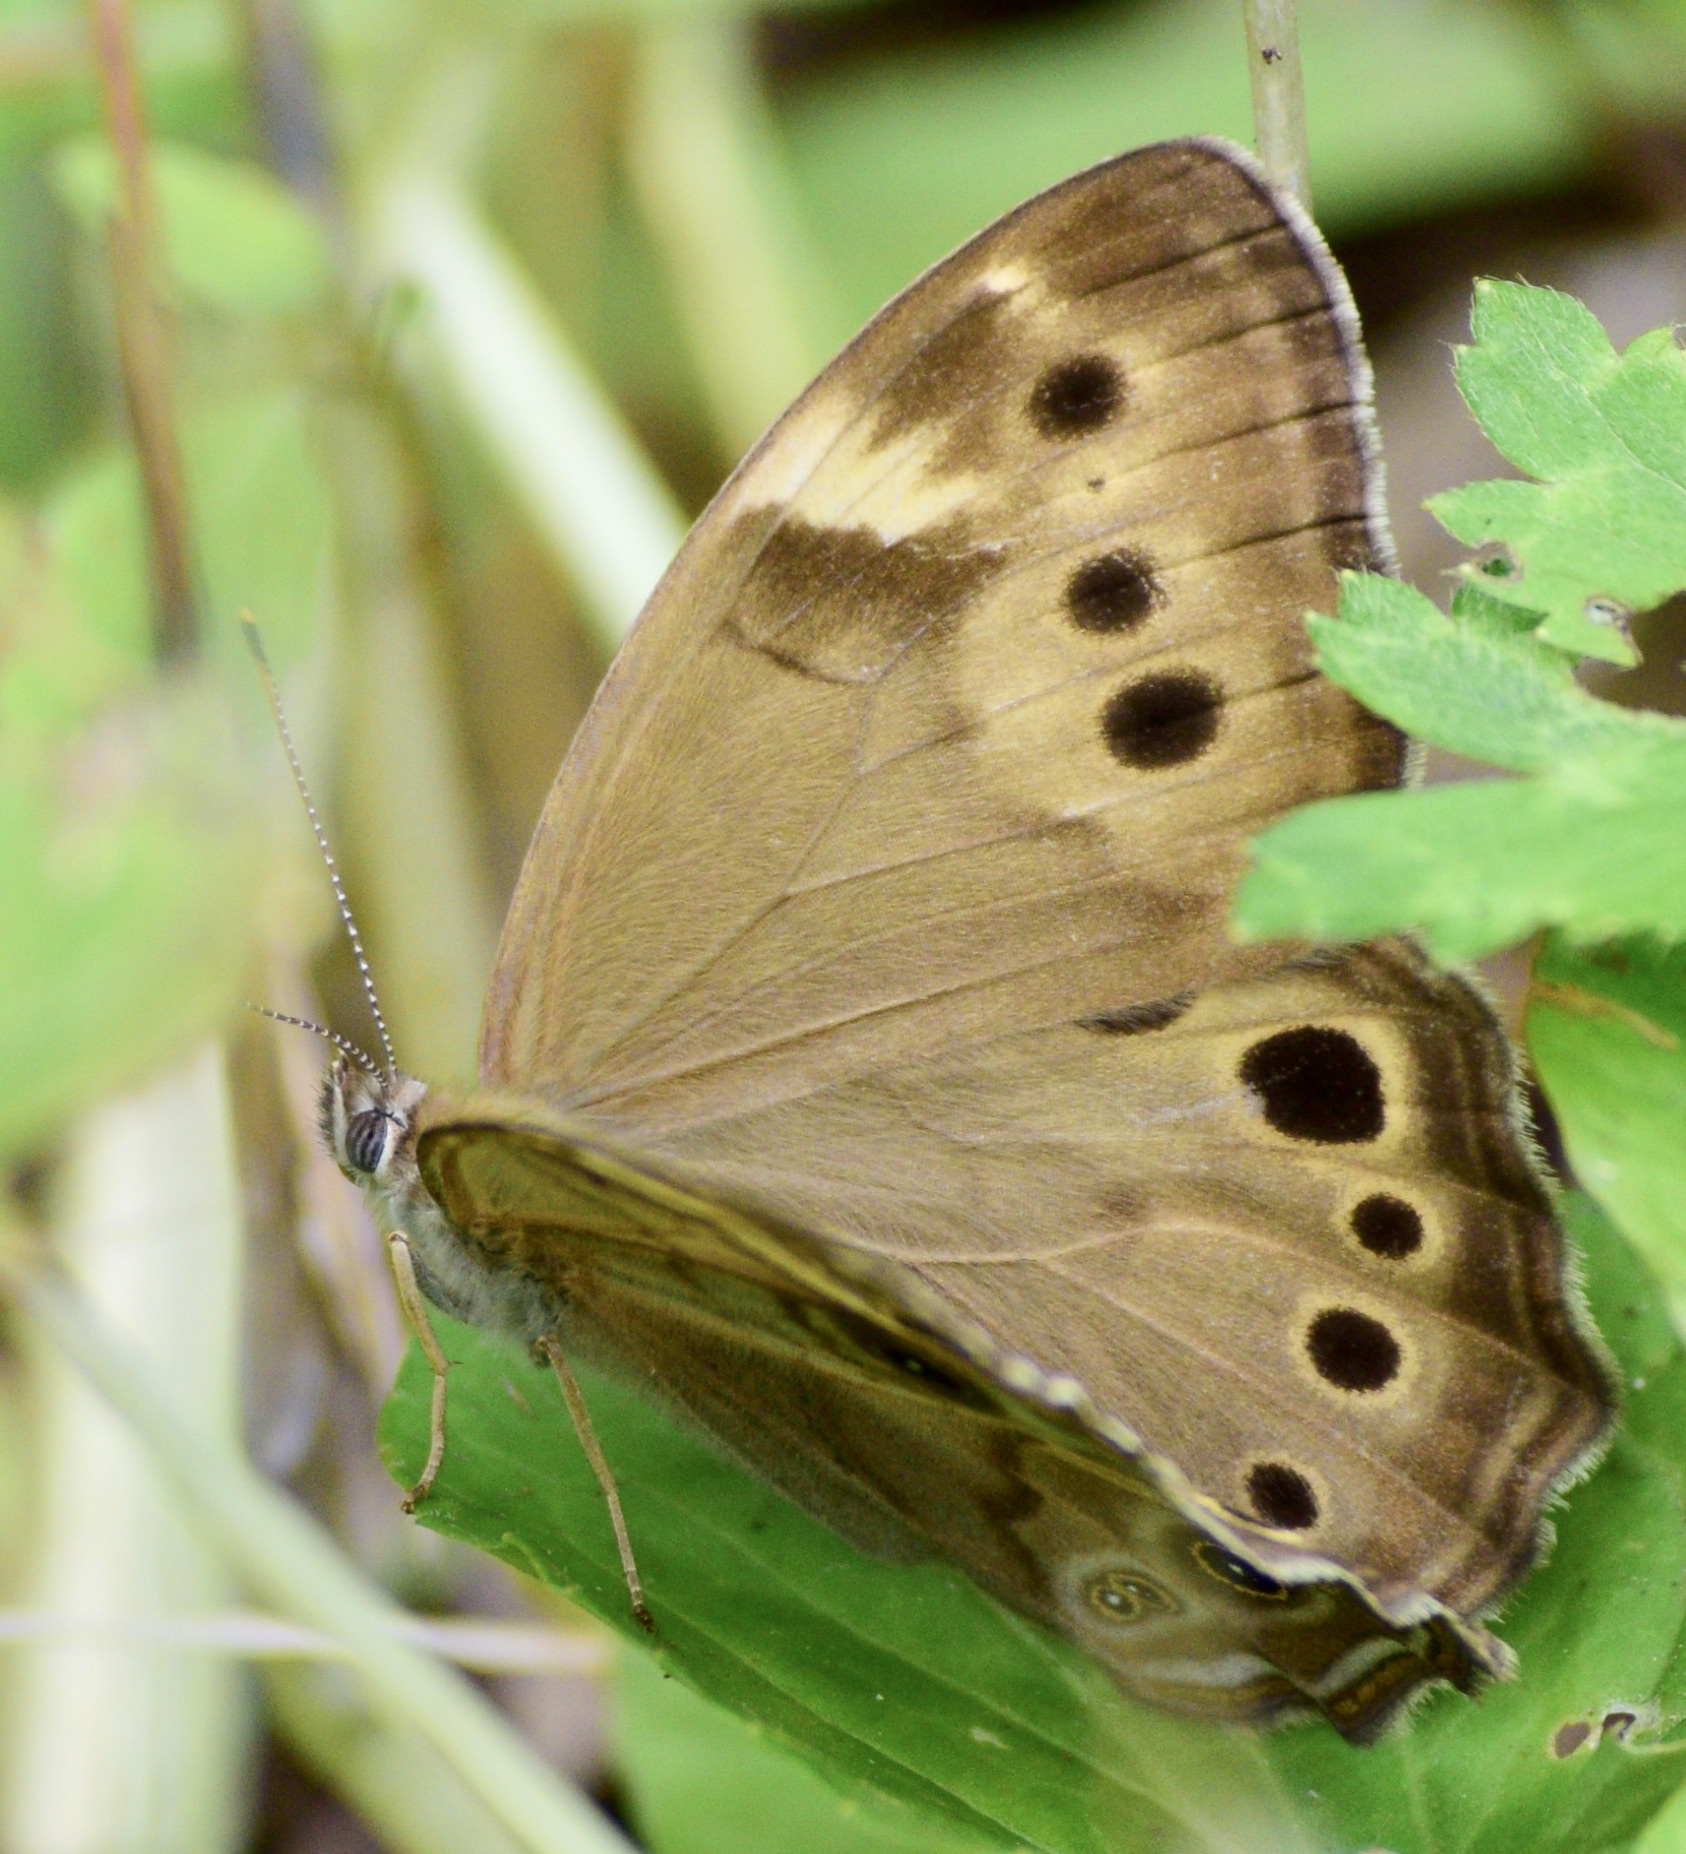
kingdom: Animalia
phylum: Arthropoda
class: Insecta
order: Lepidoptera
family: Nymphalidae
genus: Lethe
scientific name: Lethe anthedon
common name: Northern pearly-eye
